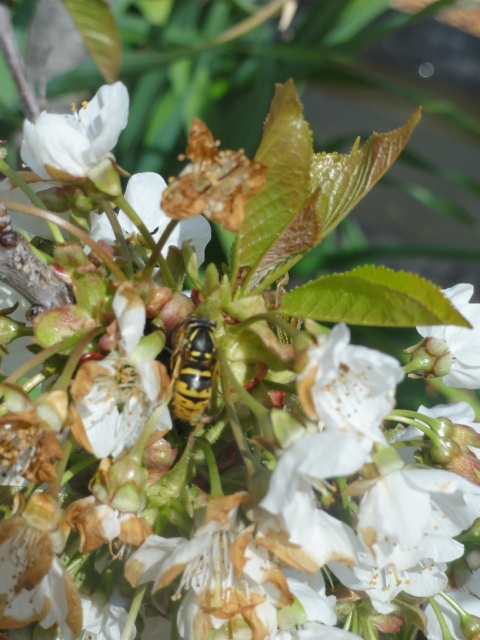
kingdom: Animalia
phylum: Arthropoda
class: Insecta
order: Hymenoptera
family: Vespidae
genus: Vespula
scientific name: Vespula vulgaris
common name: Common wasp
